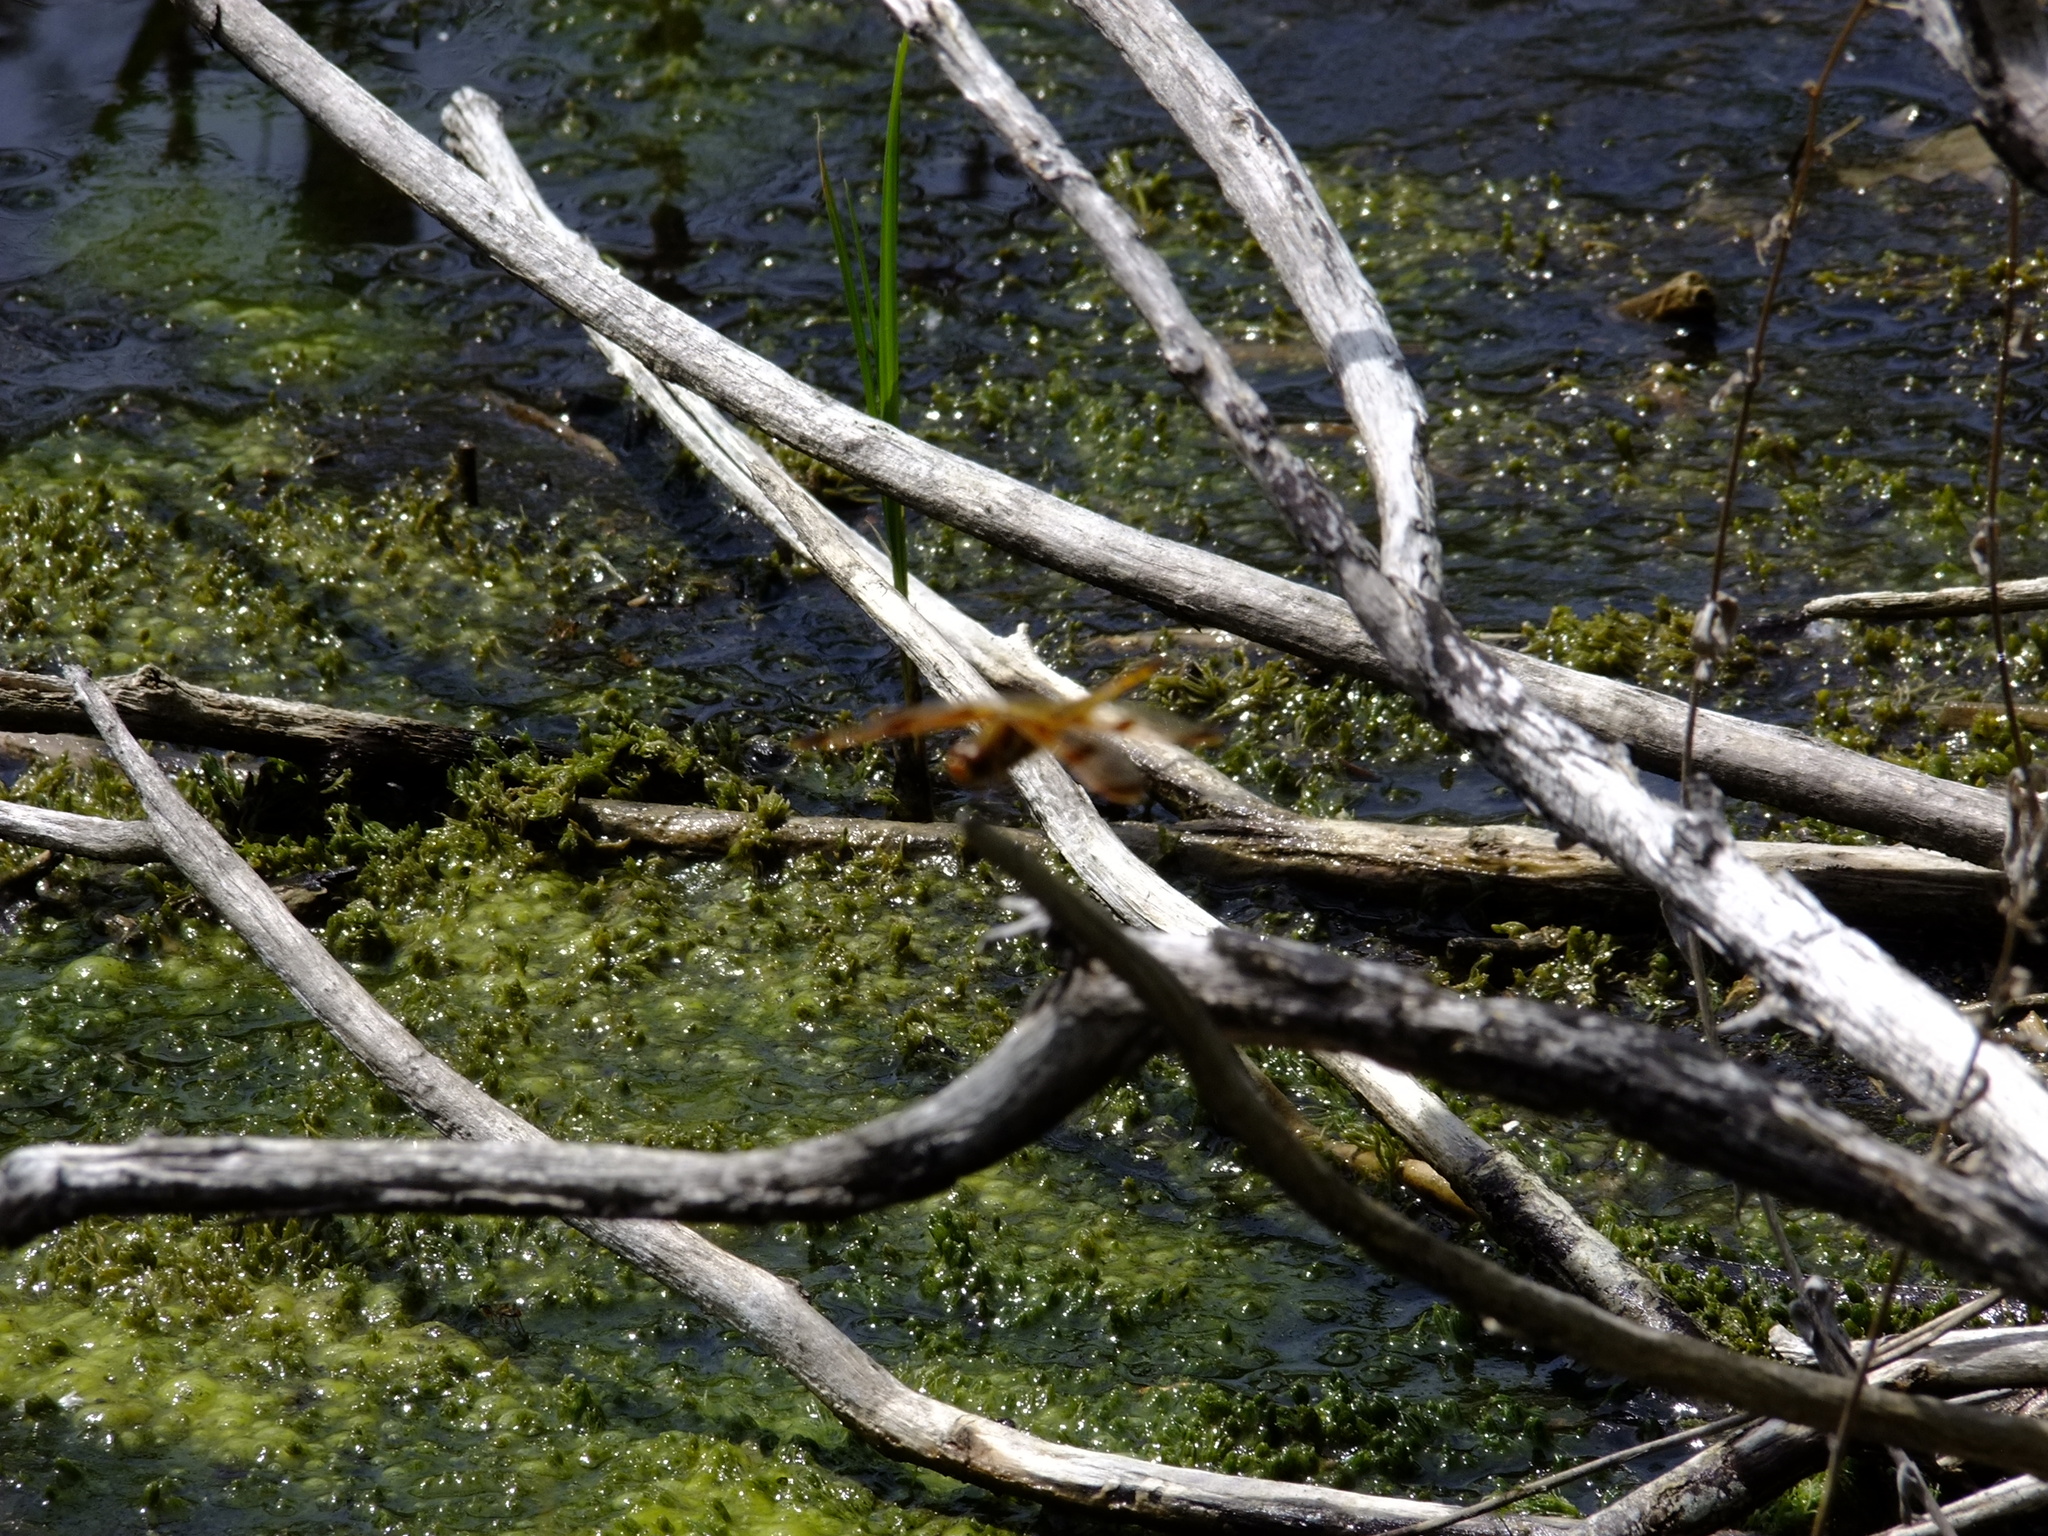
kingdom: Animalia
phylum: Arthropoda
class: Insecta
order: Odonata
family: Libellulidae
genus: Libellula
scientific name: Libellula semifasciata
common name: Painted skimmer
